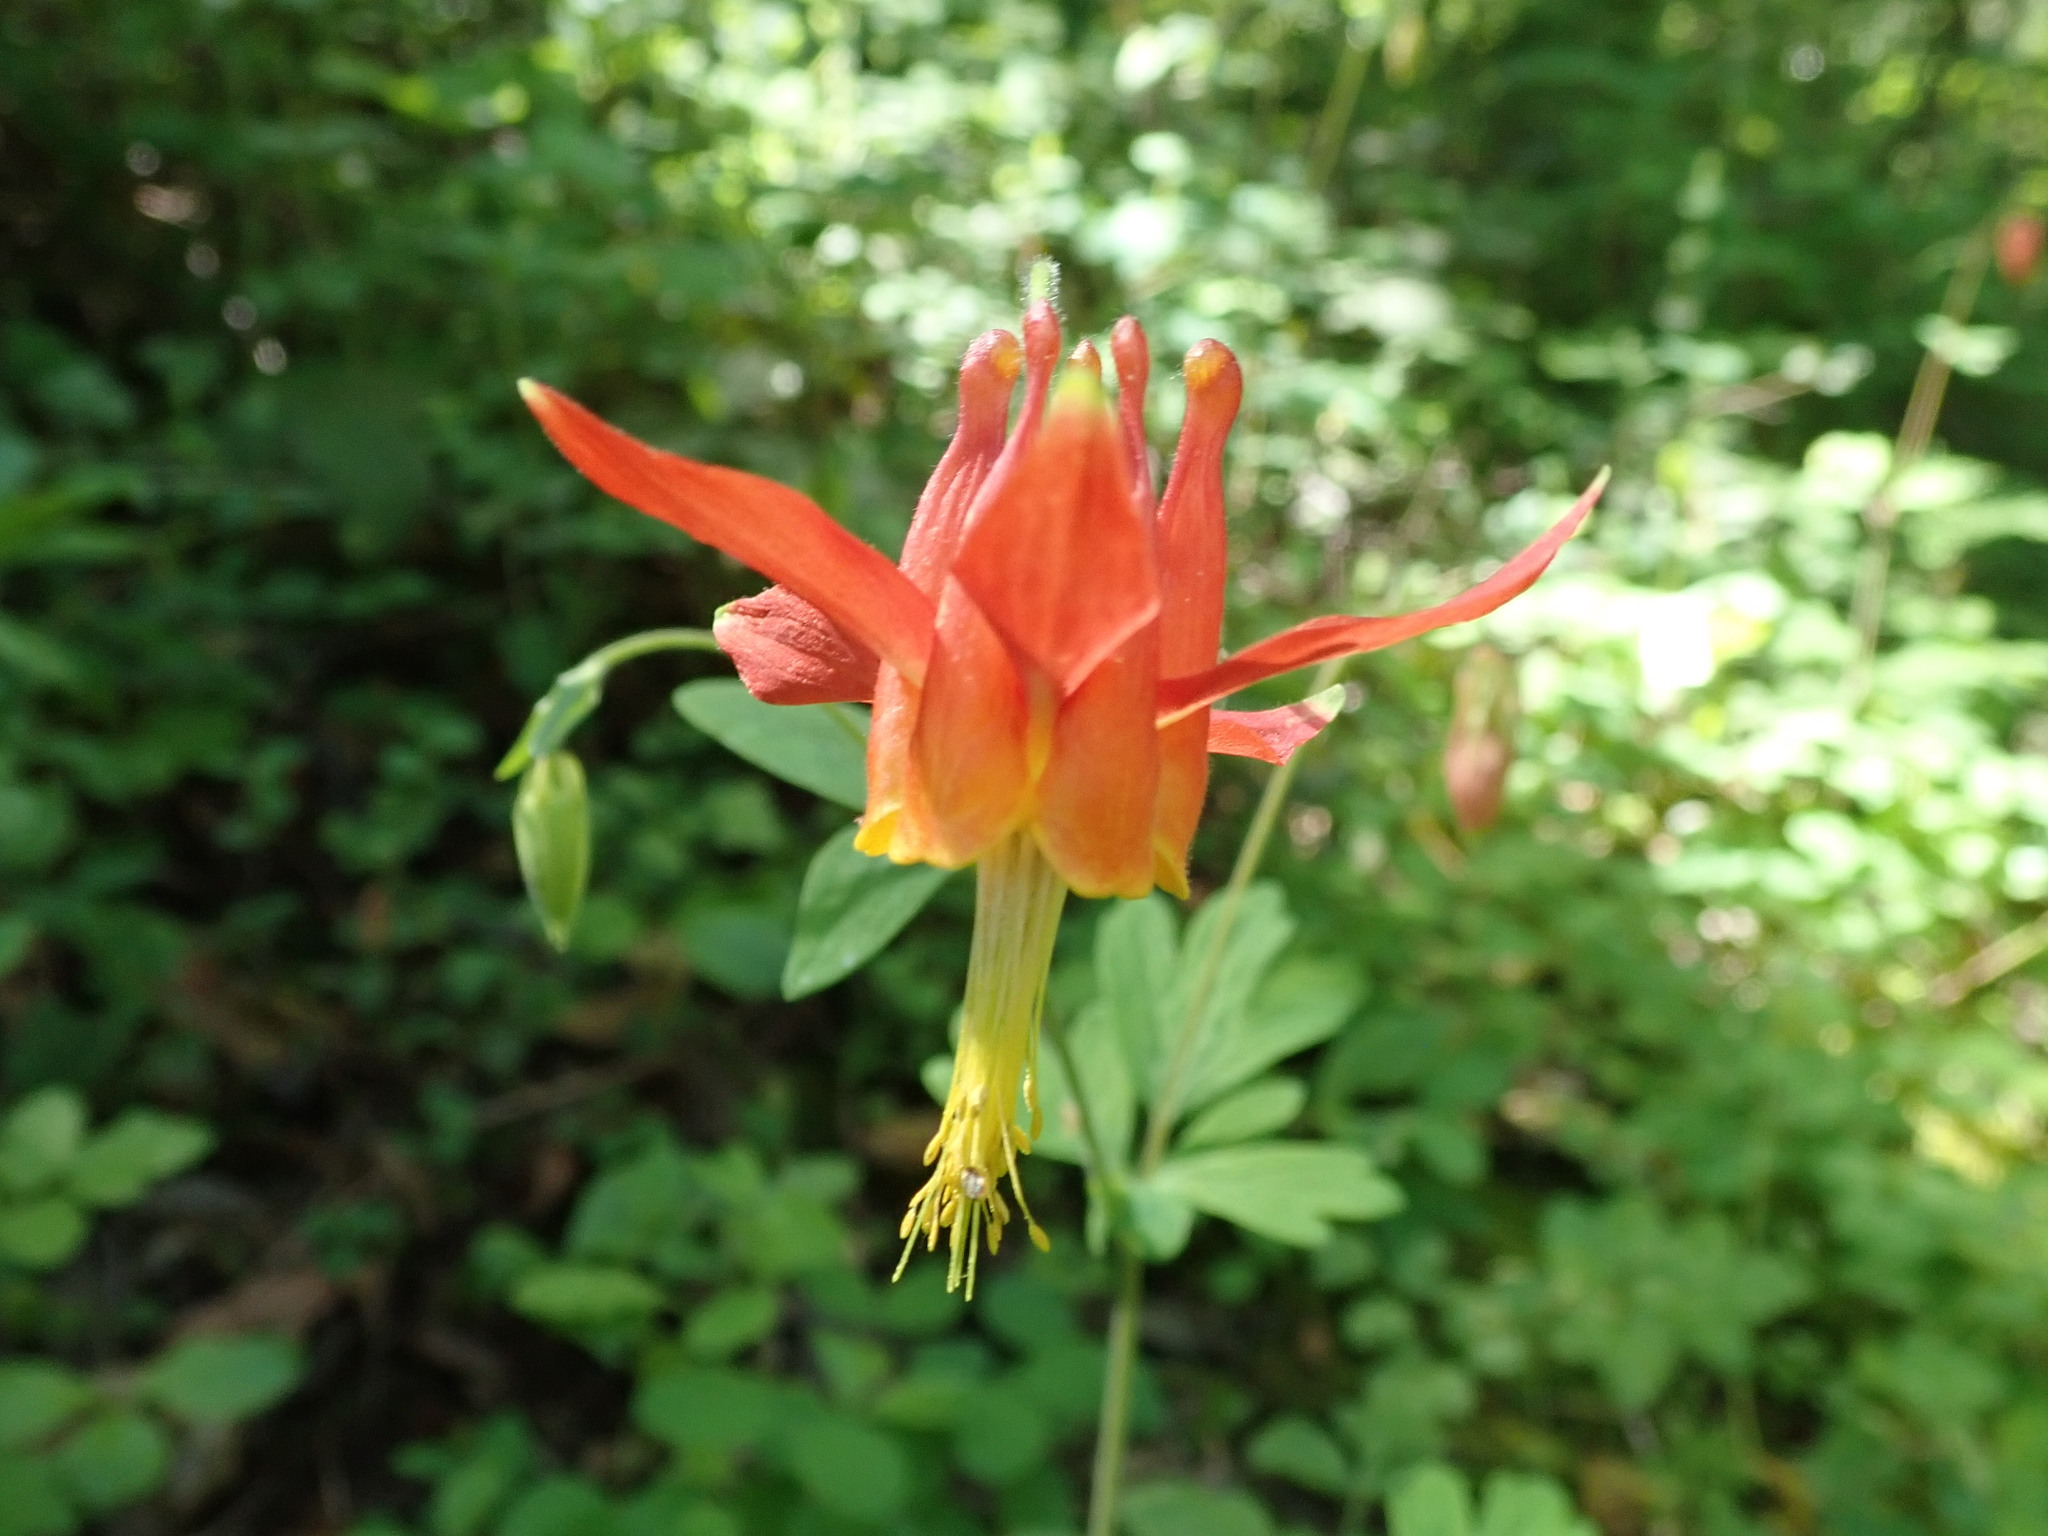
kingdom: Plantae
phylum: Tracheophyta
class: Magnoliopsida
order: Ranunculales
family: Ranunculaceae
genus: Aquilegia
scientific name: Aquilegia formosa
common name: Sitka columbine
